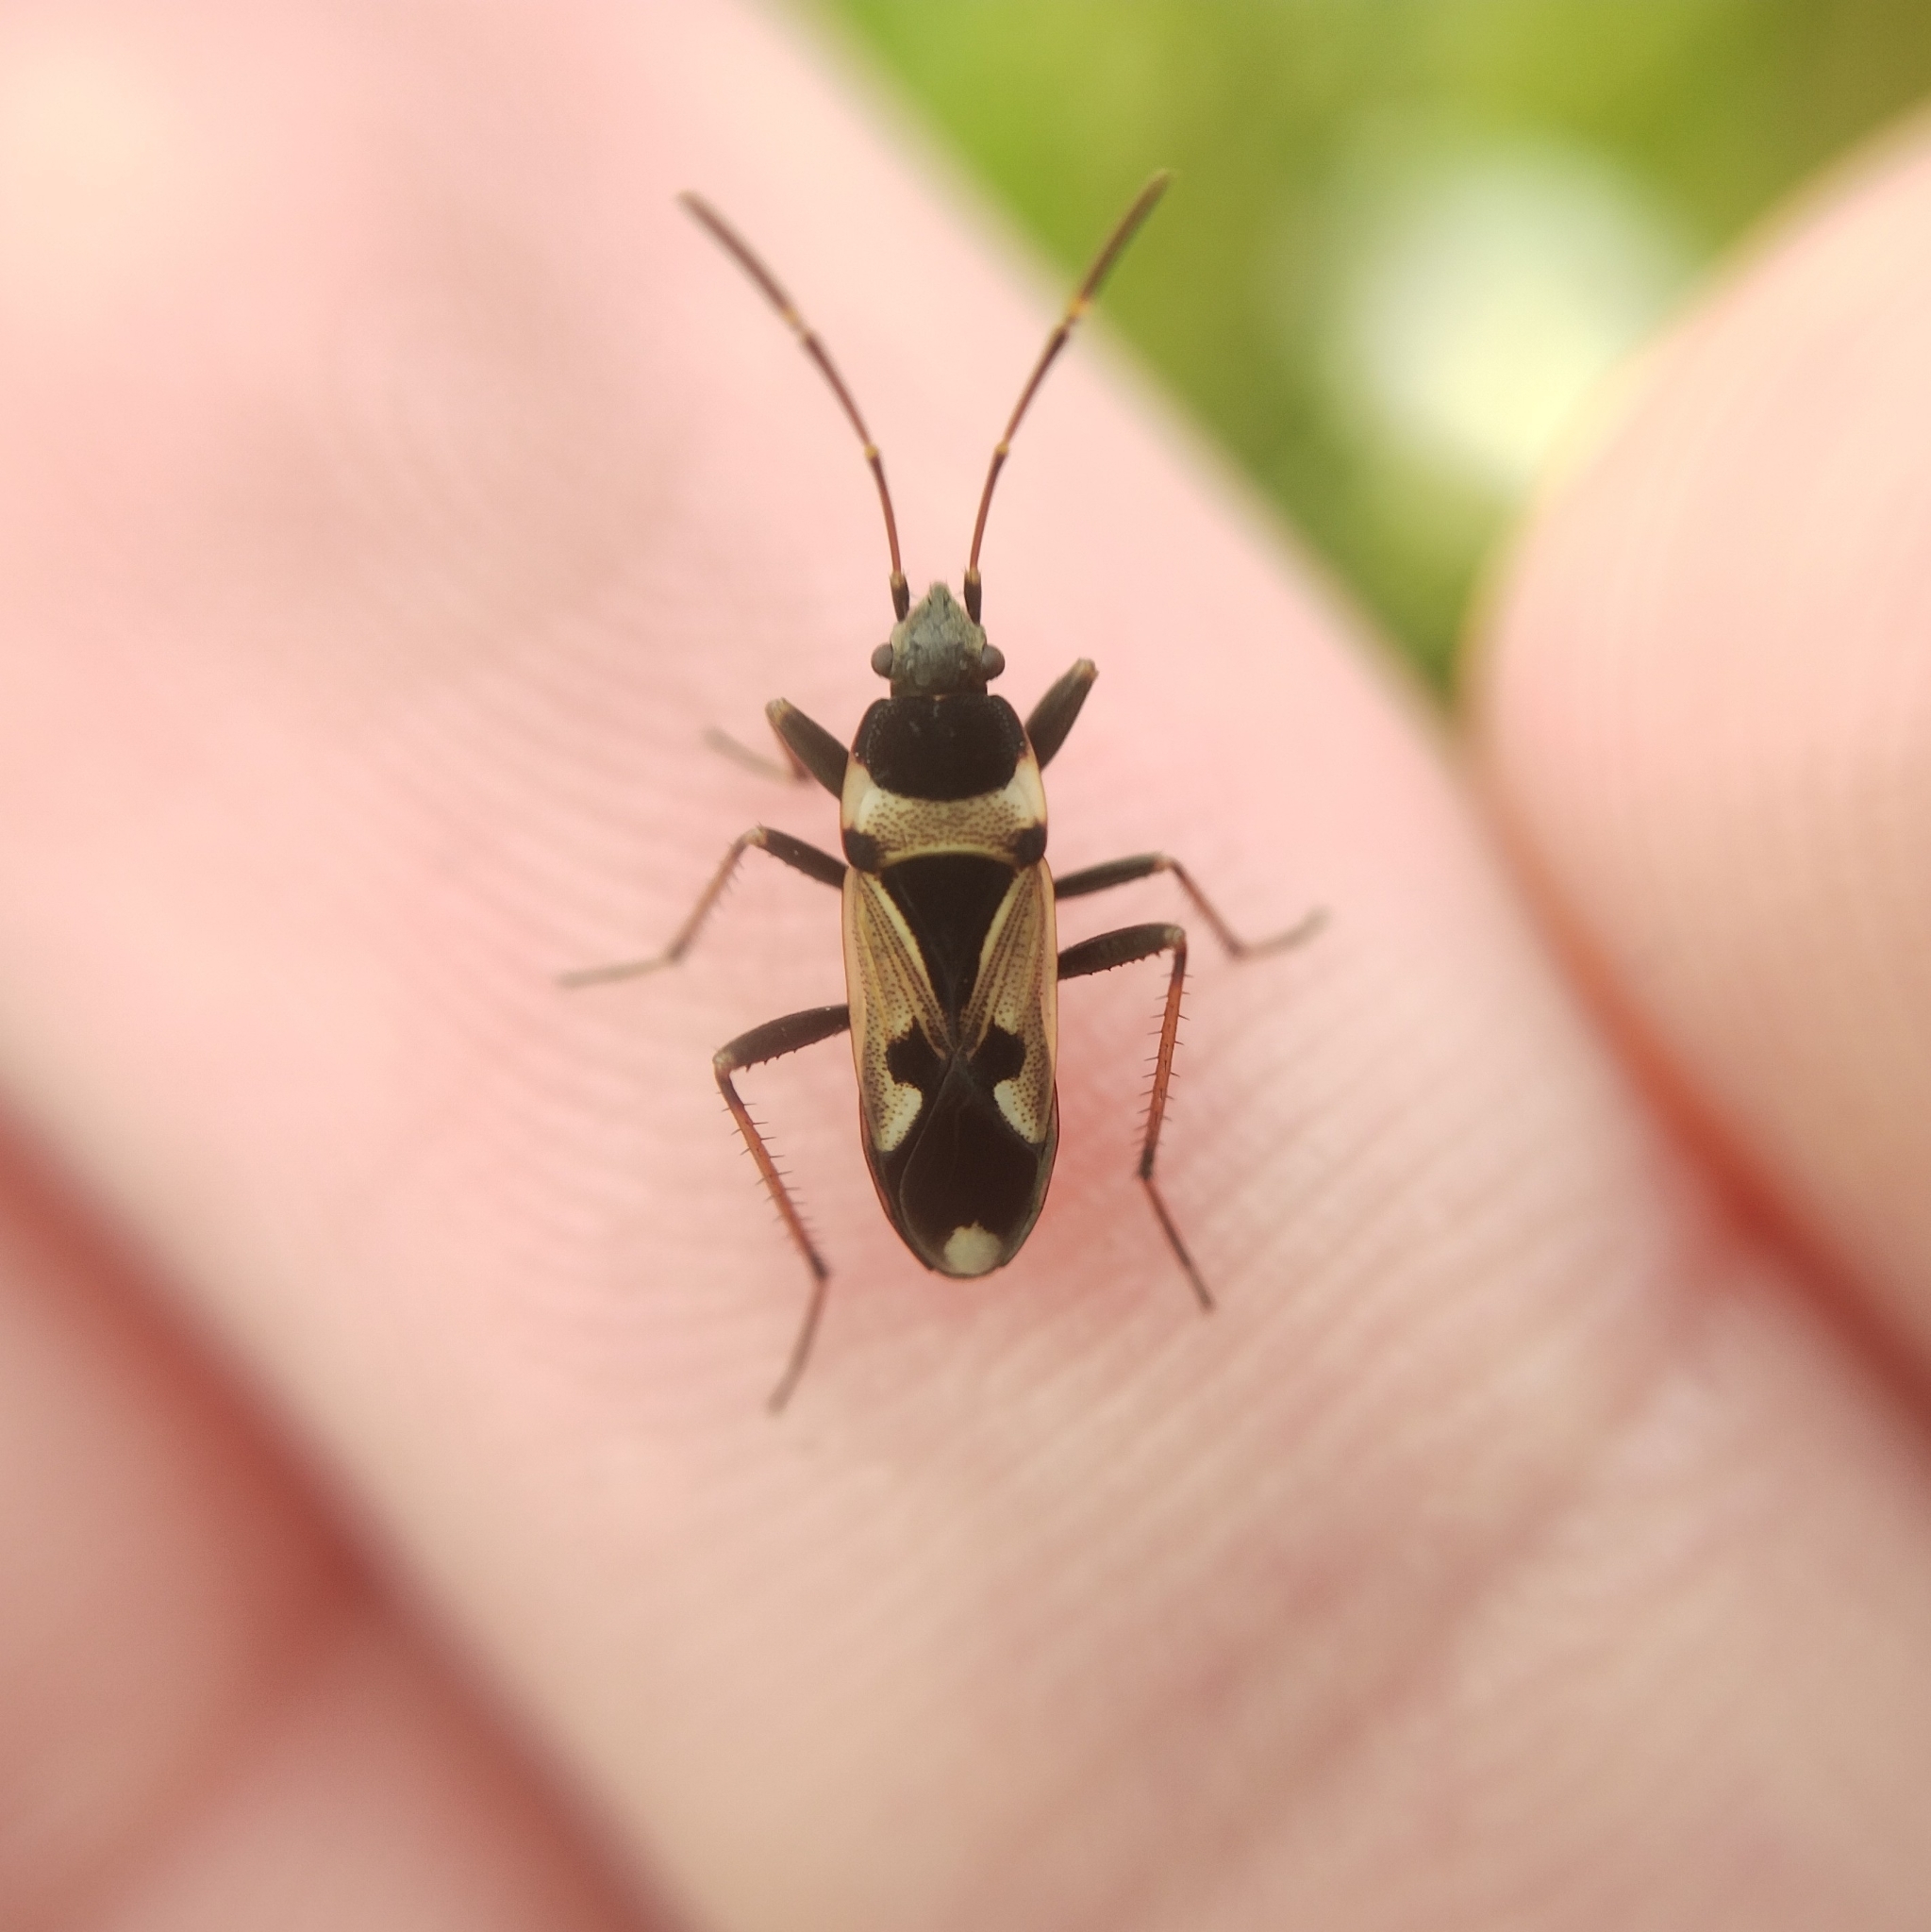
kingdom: Animalia
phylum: Arthropoda
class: Insecta
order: Hemiptera
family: Rhyparochromidae
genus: Raglius
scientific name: Raglius confusus
